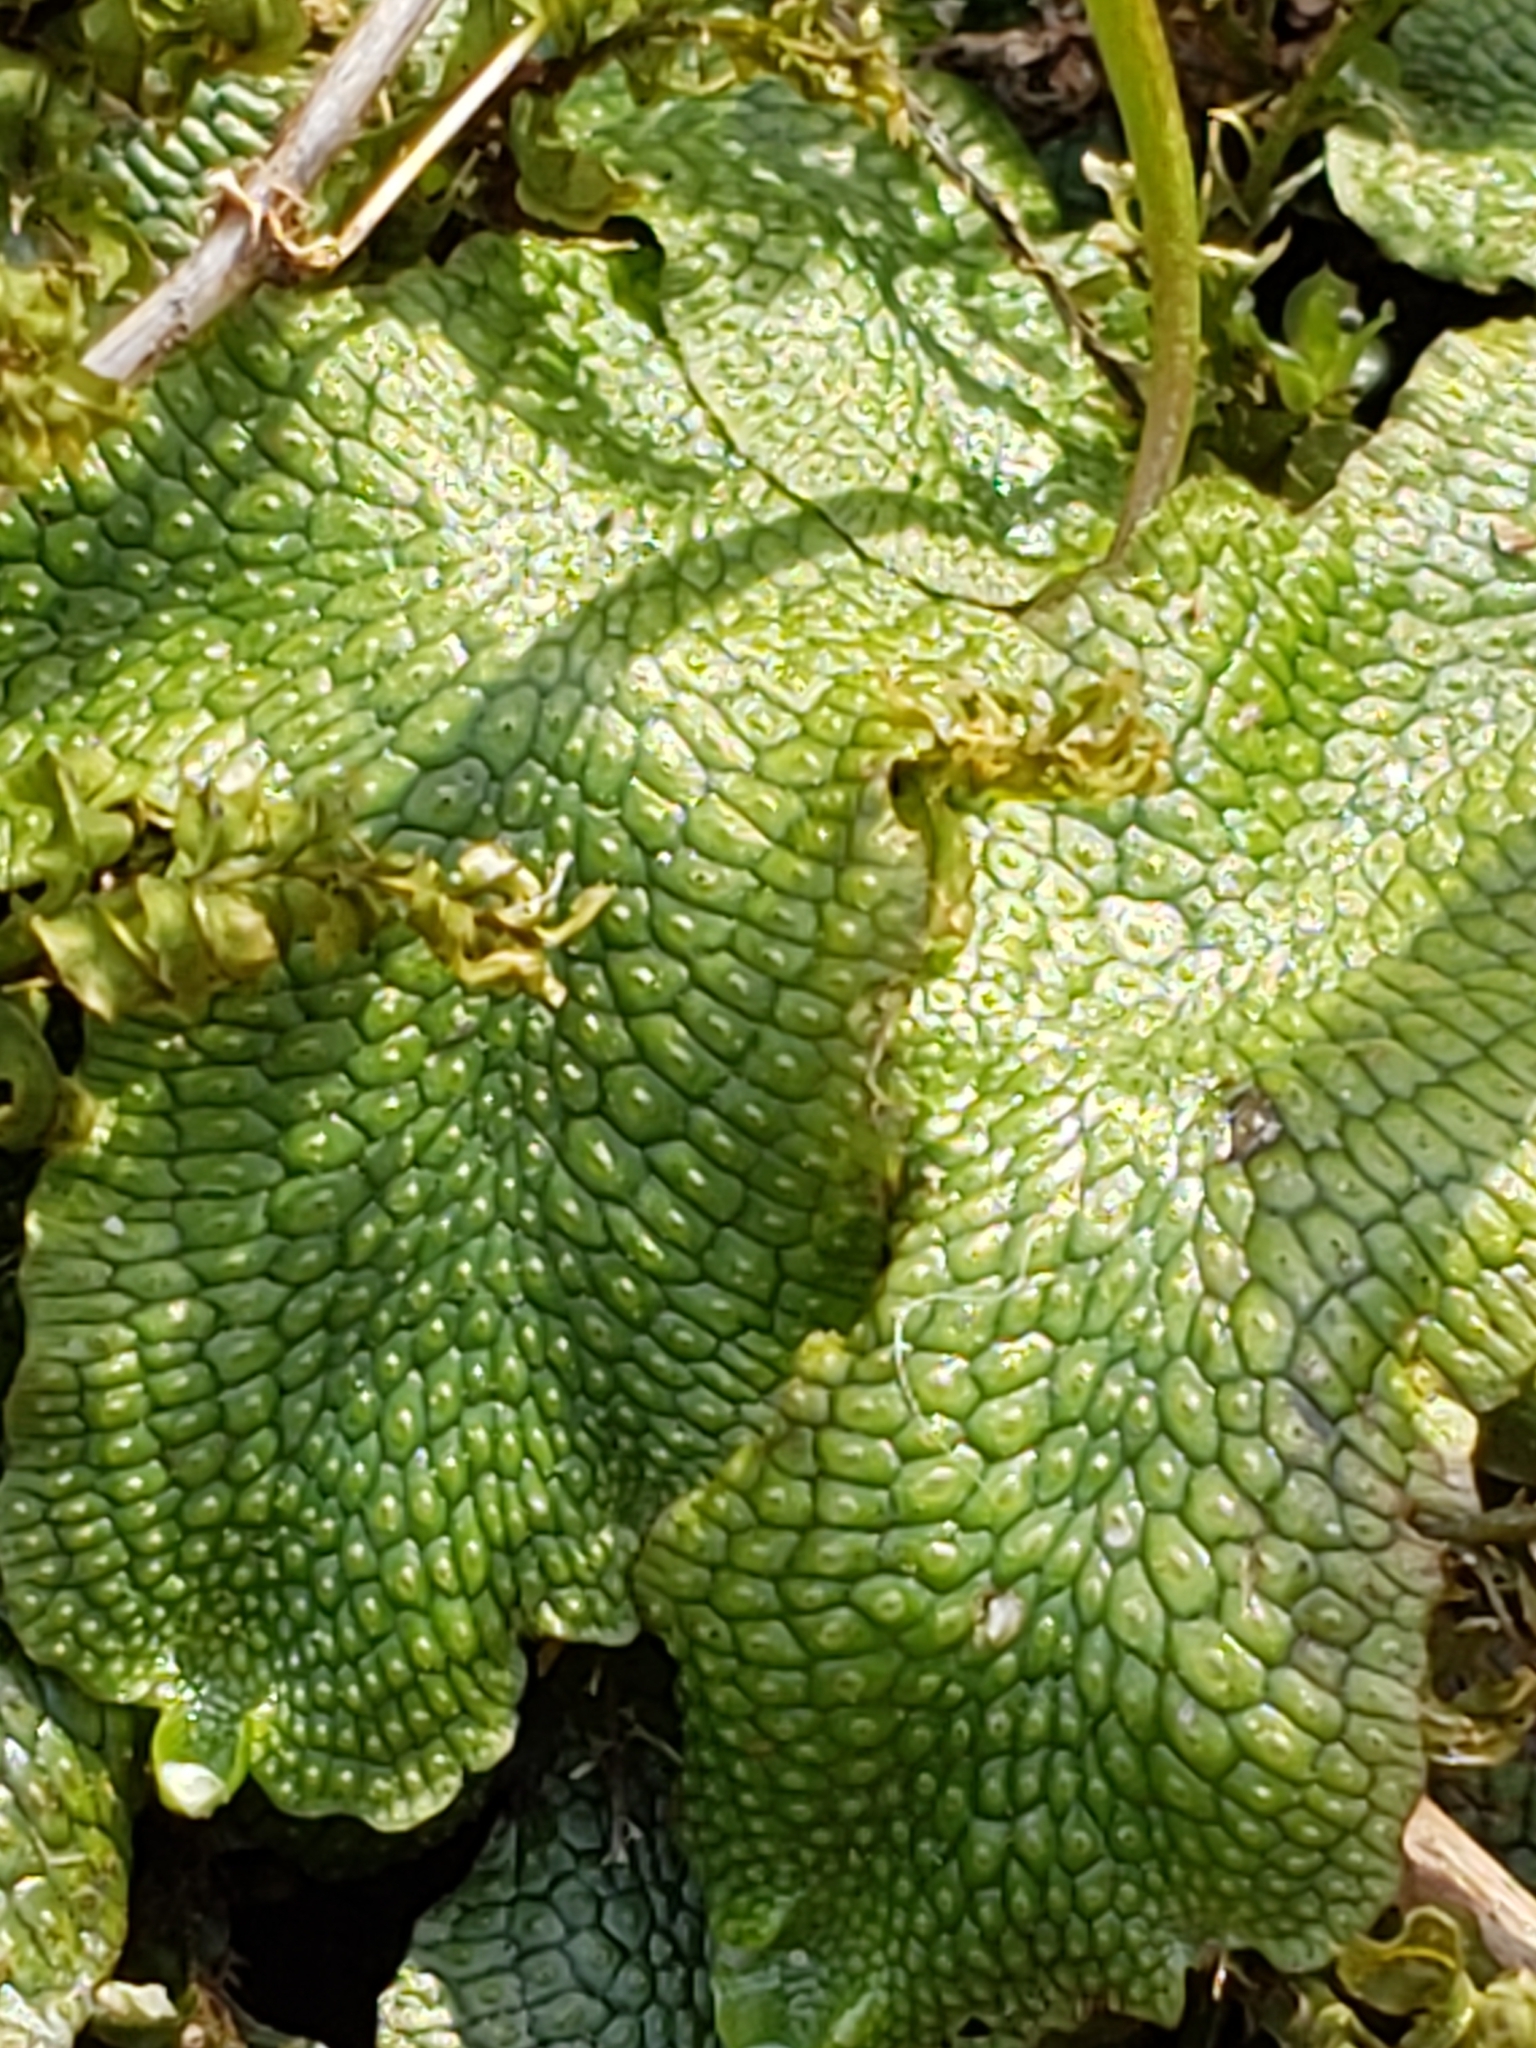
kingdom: Plantae
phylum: Marchantiophyta
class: Marchantiopsida
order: Marchantiales
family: Conocephalaceae
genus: Conocephalum
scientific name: Conocephalum salebrosum
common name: Cat-tongue liverwort
